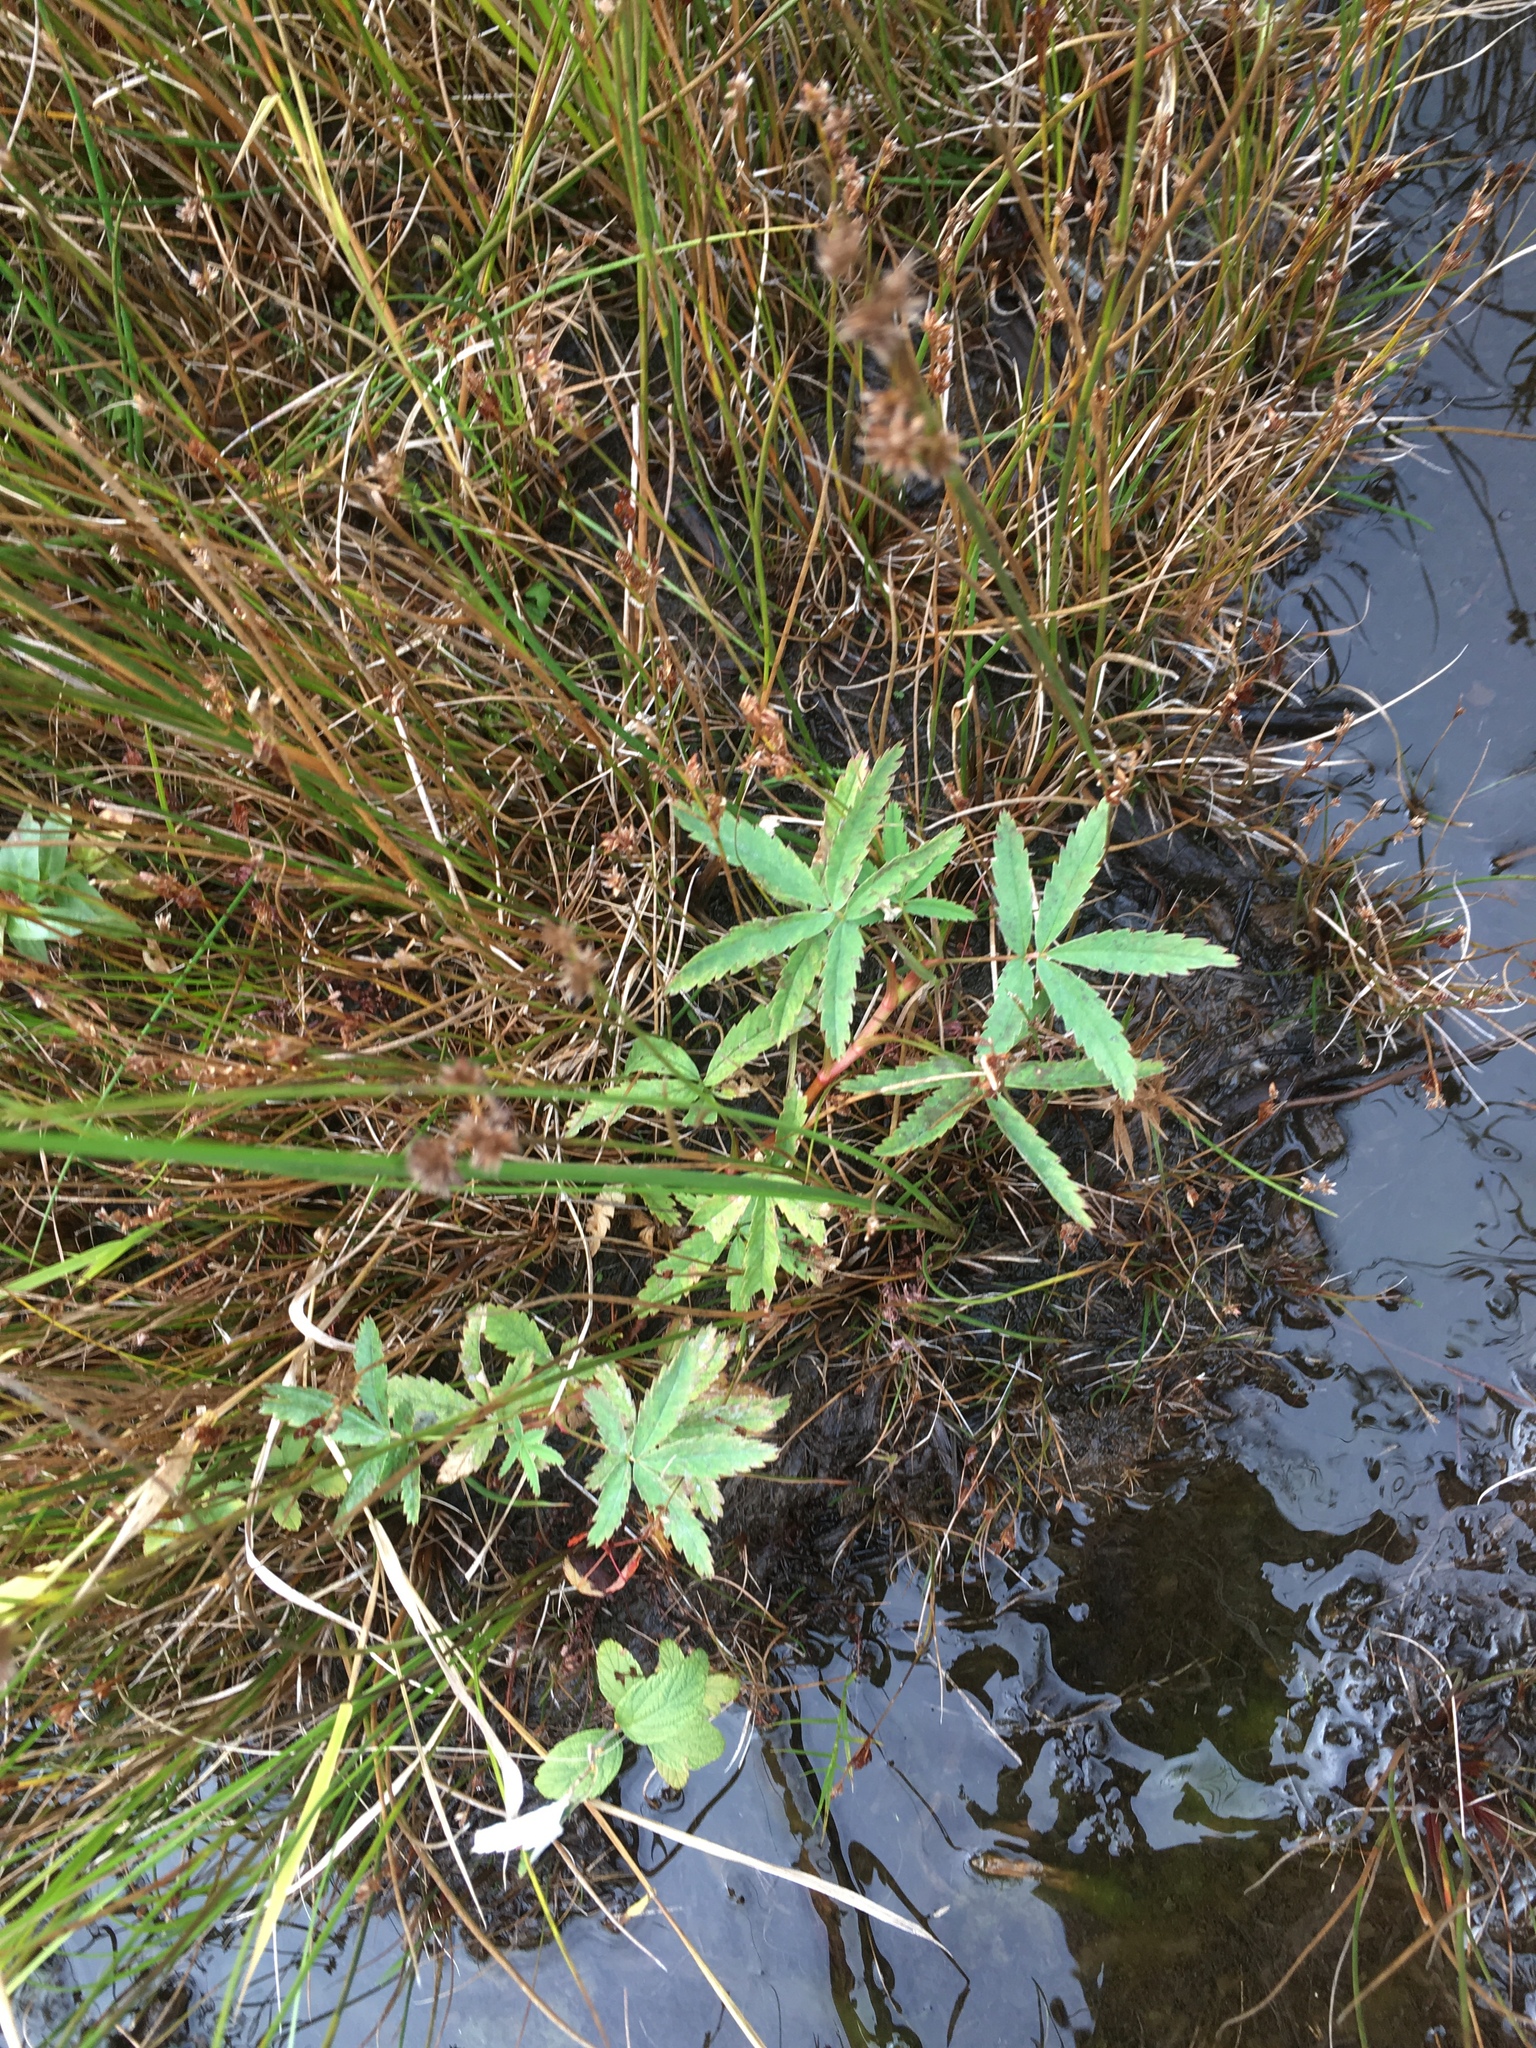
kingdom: Plantae
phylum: Tracheophyta
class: Magnoliopsida
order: Rosales
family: Rosaceae
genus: Comarum
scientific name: Comarum palustre
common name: Marsh cinquefoil
